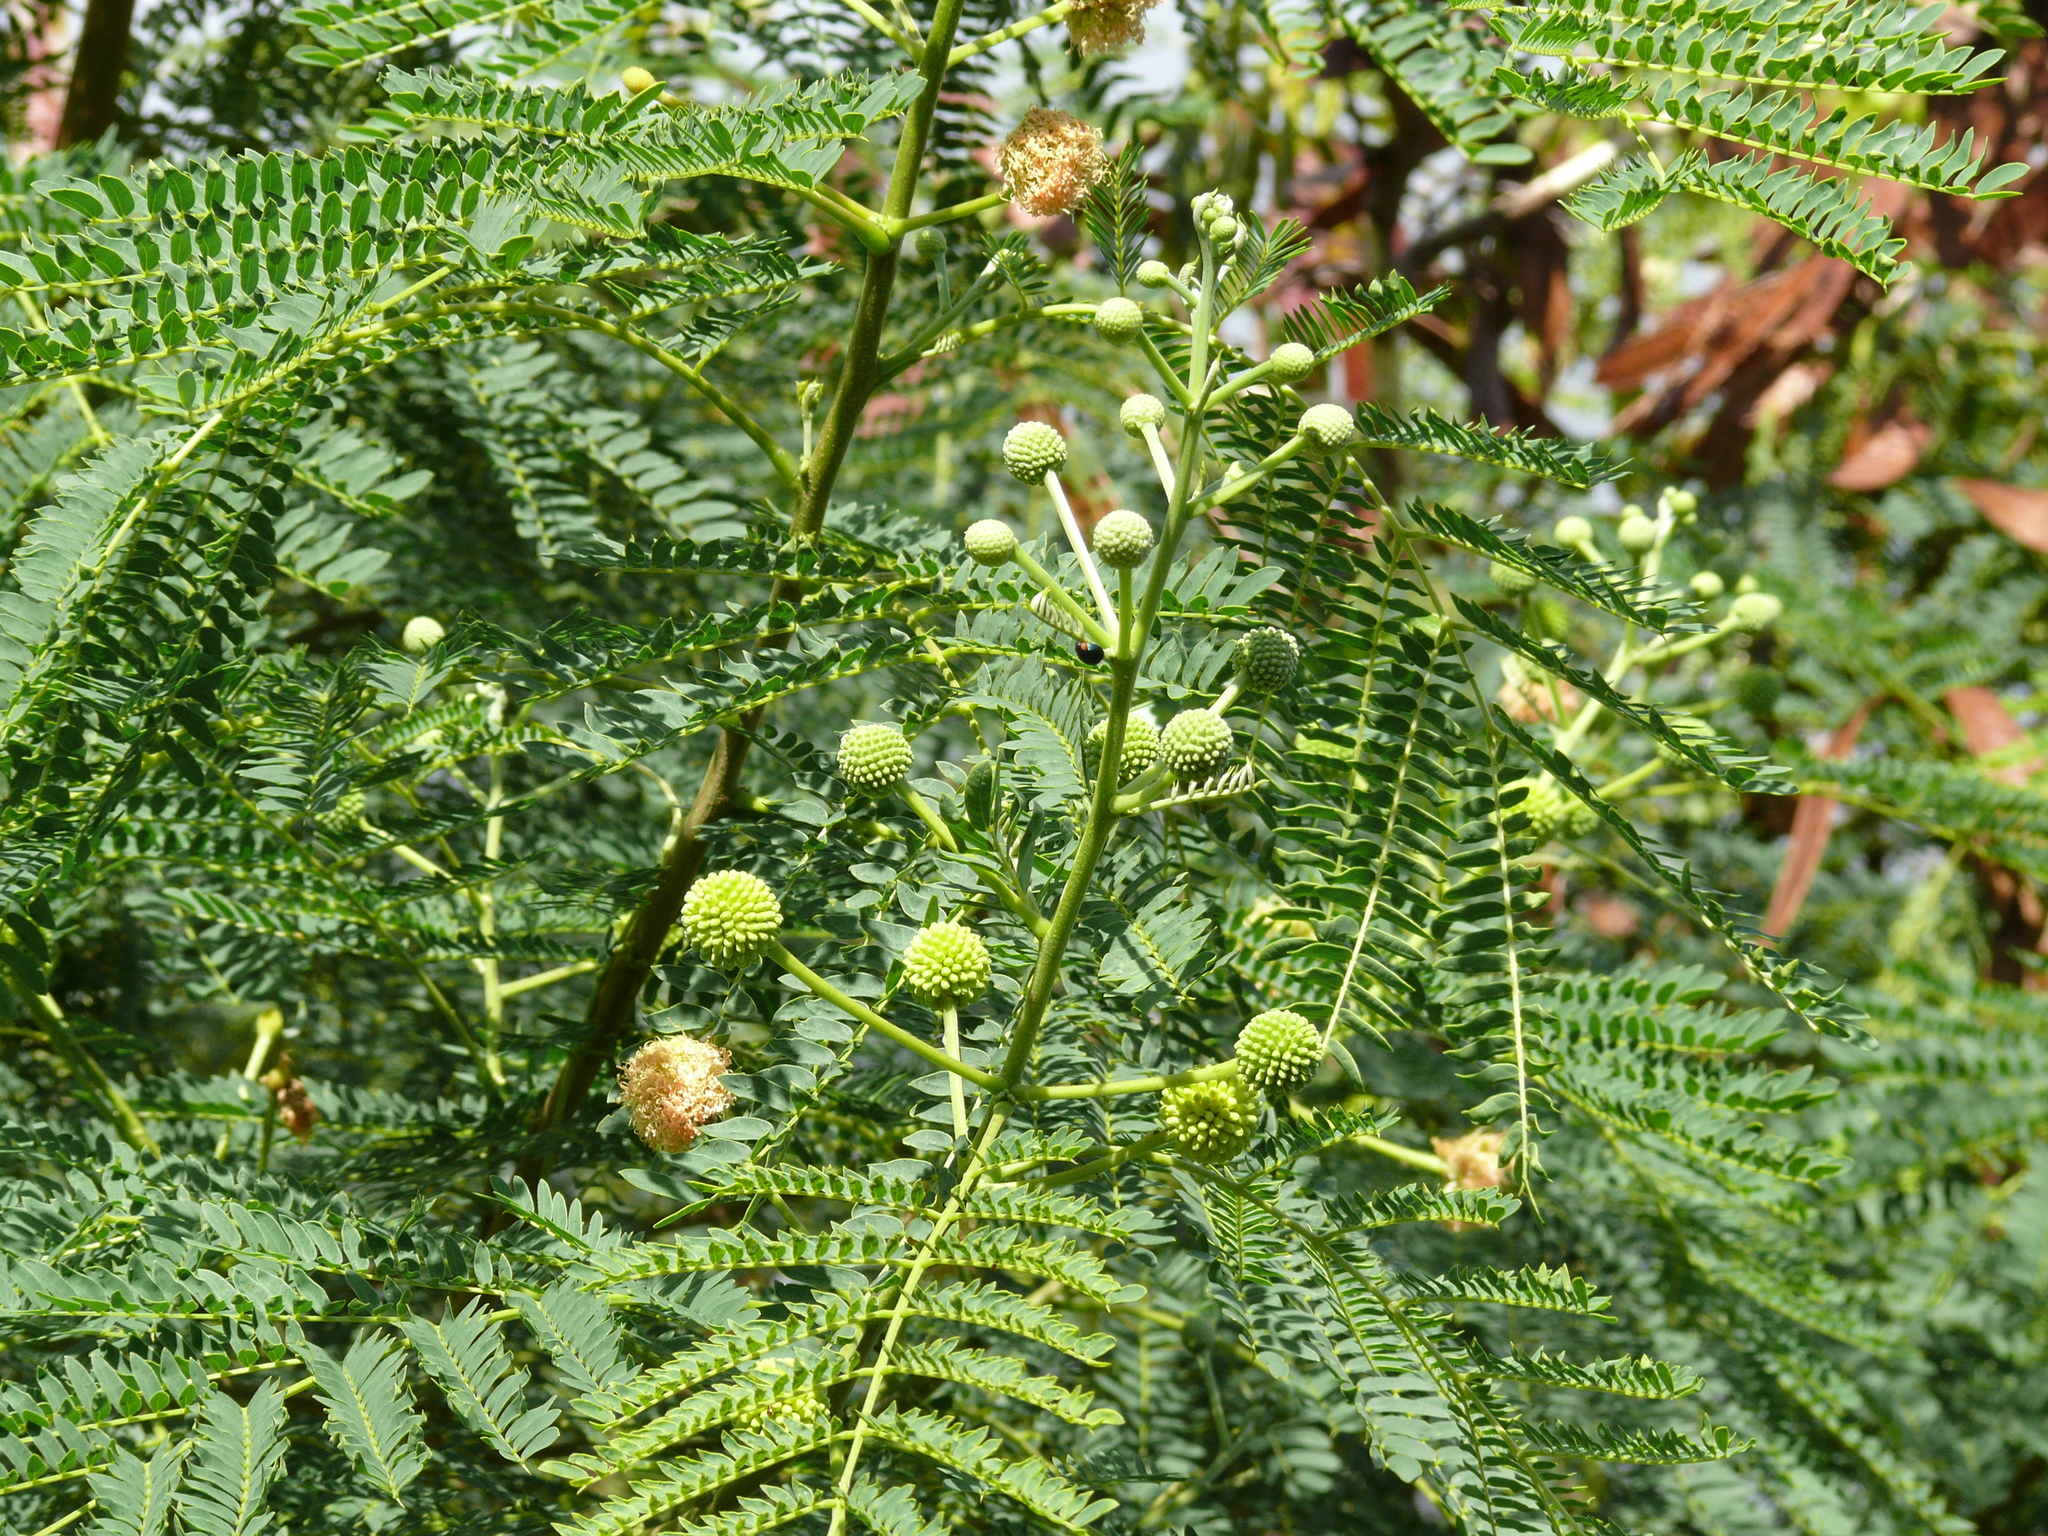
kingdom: Plantae
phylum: Tracheophyta
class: Magnoliopsida
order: Fabales
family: Fabaceae
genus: Leucaena
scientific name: Leucaena leucocephala
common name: White leadtree
